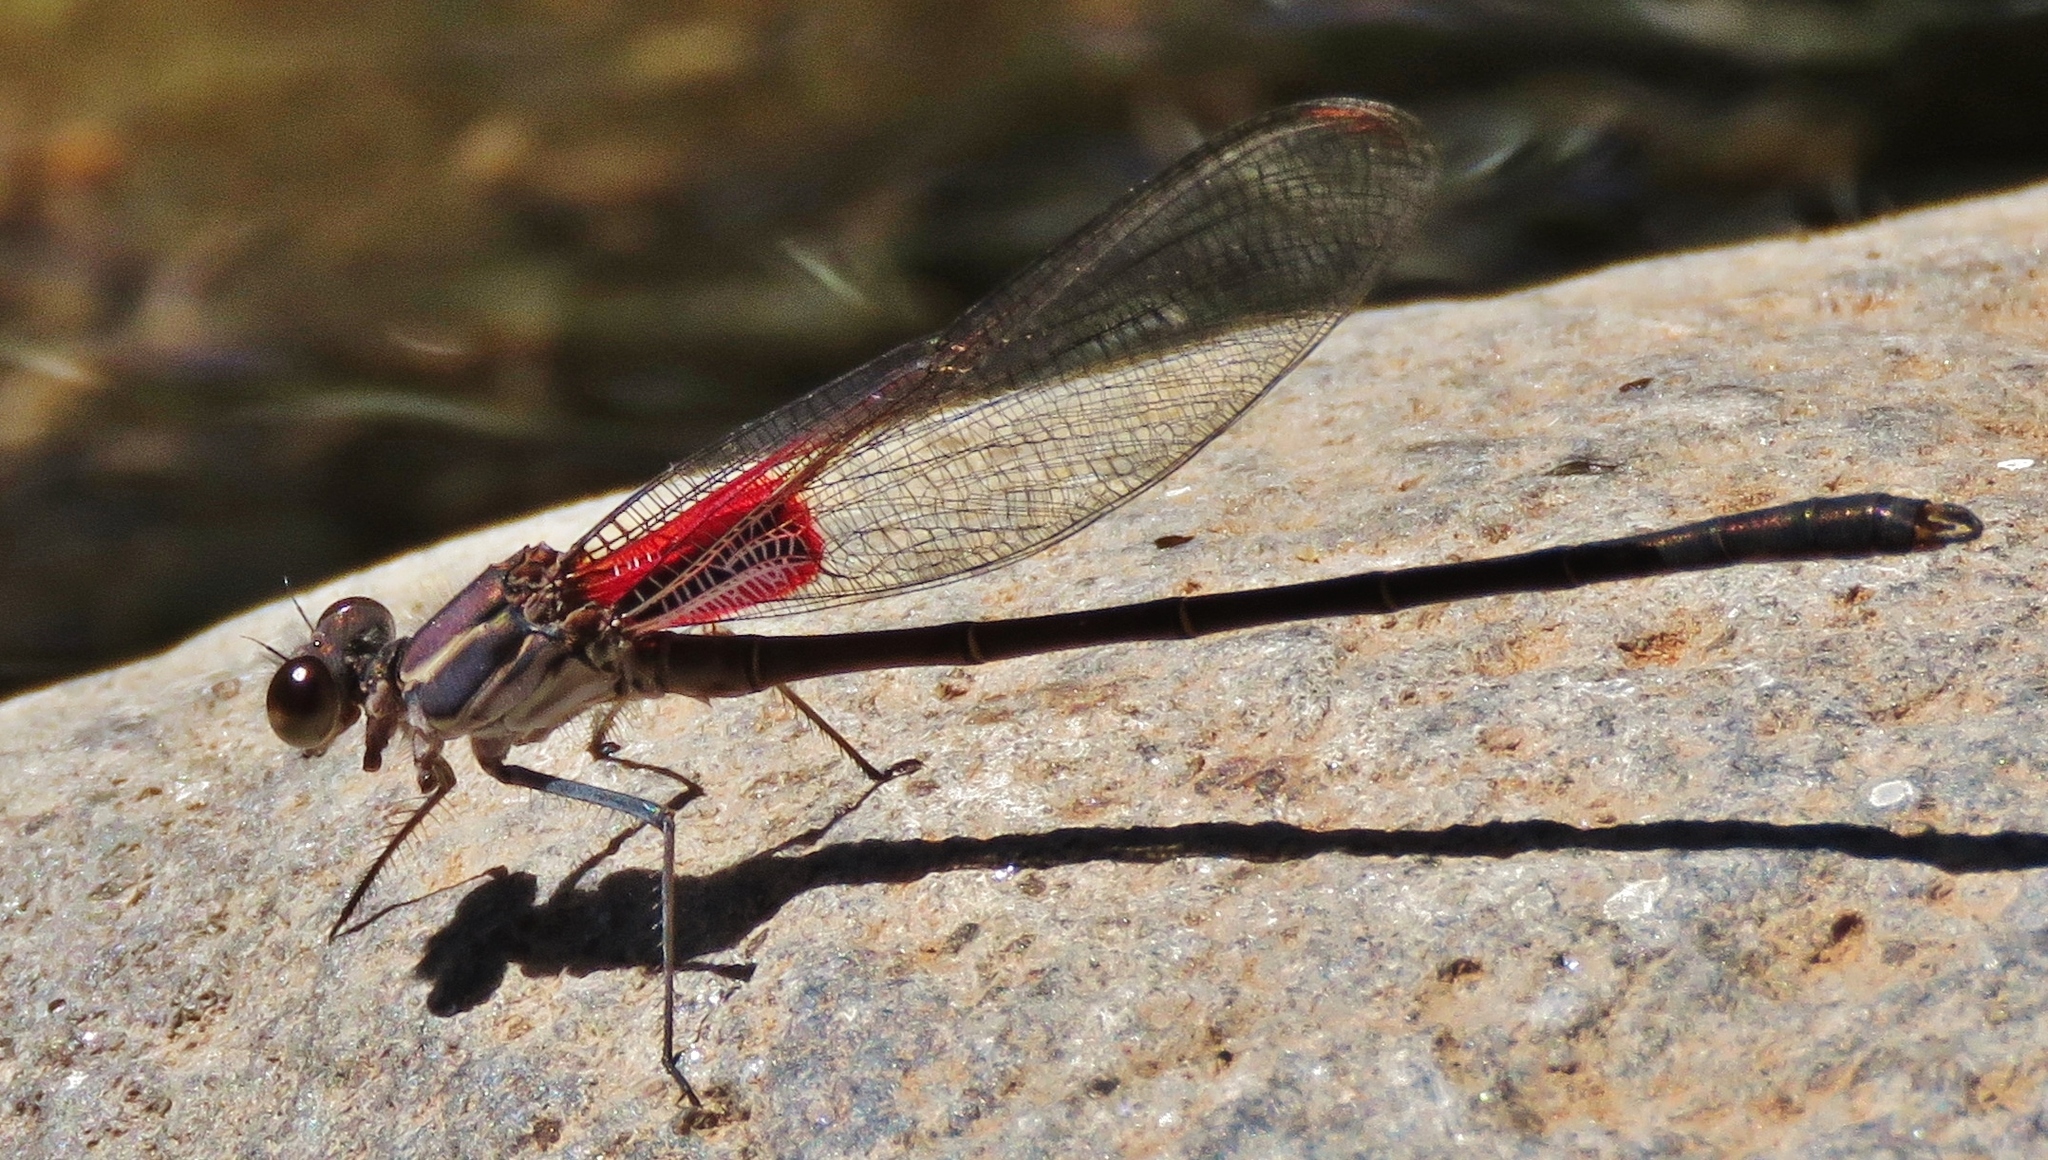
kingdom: Animalia
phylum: Arthropoda
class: Insecta
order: Odonata
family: Calopterygidae
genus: Hetaerina
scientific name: Hetaerina vulnerata
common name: Canyon rubyspot
